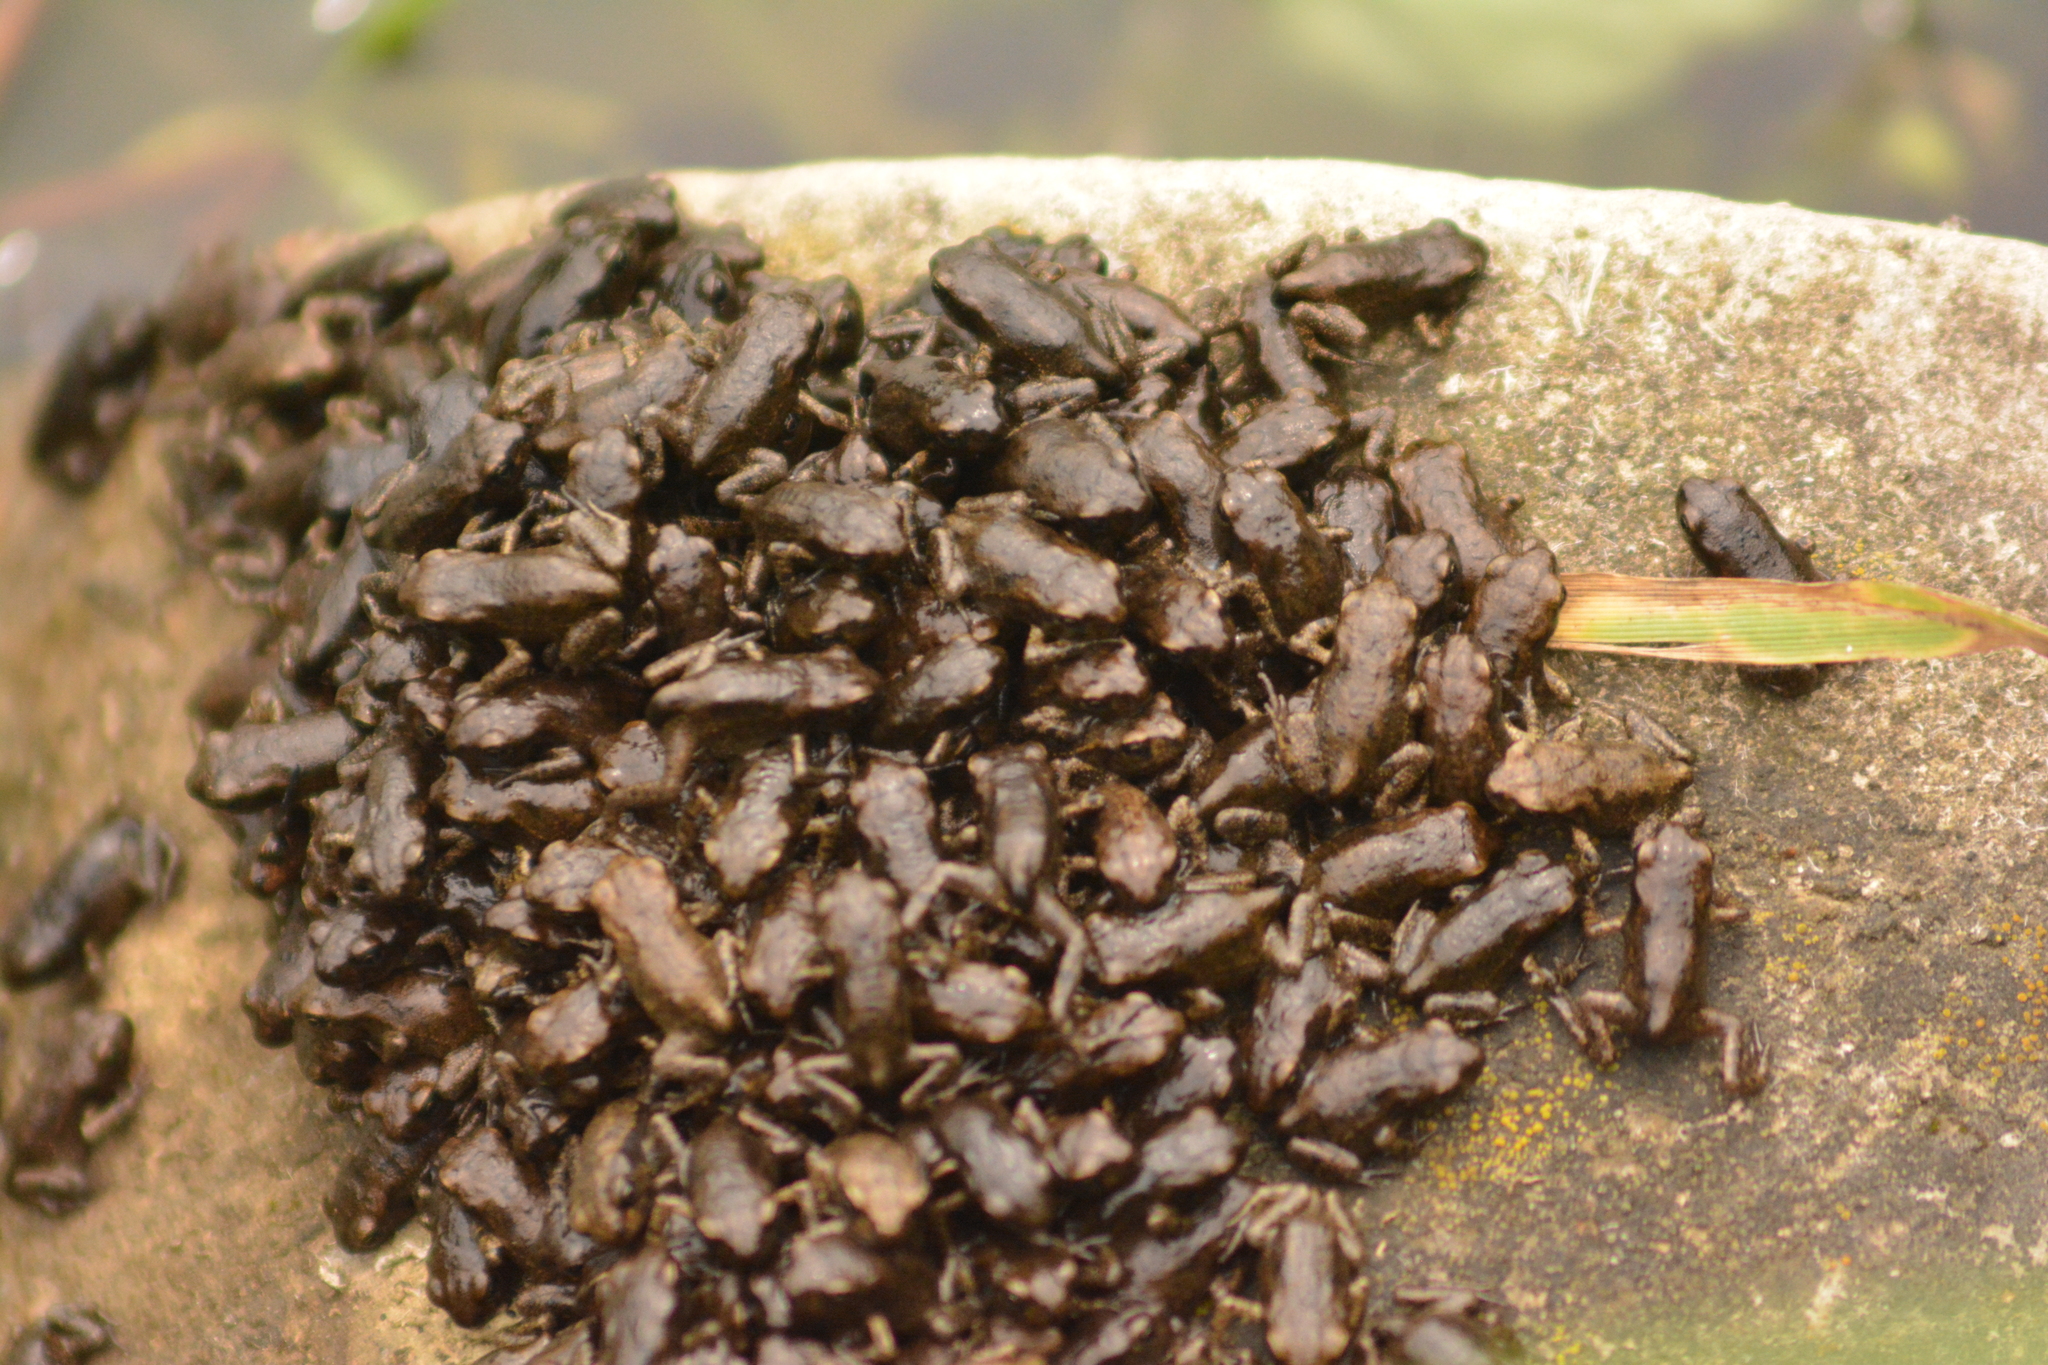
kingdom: Animalia
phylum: Chordata
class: Amphibia
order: Anura
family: Bufonidae
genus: Bufo
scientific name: Bufo bufo
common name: Common toad
